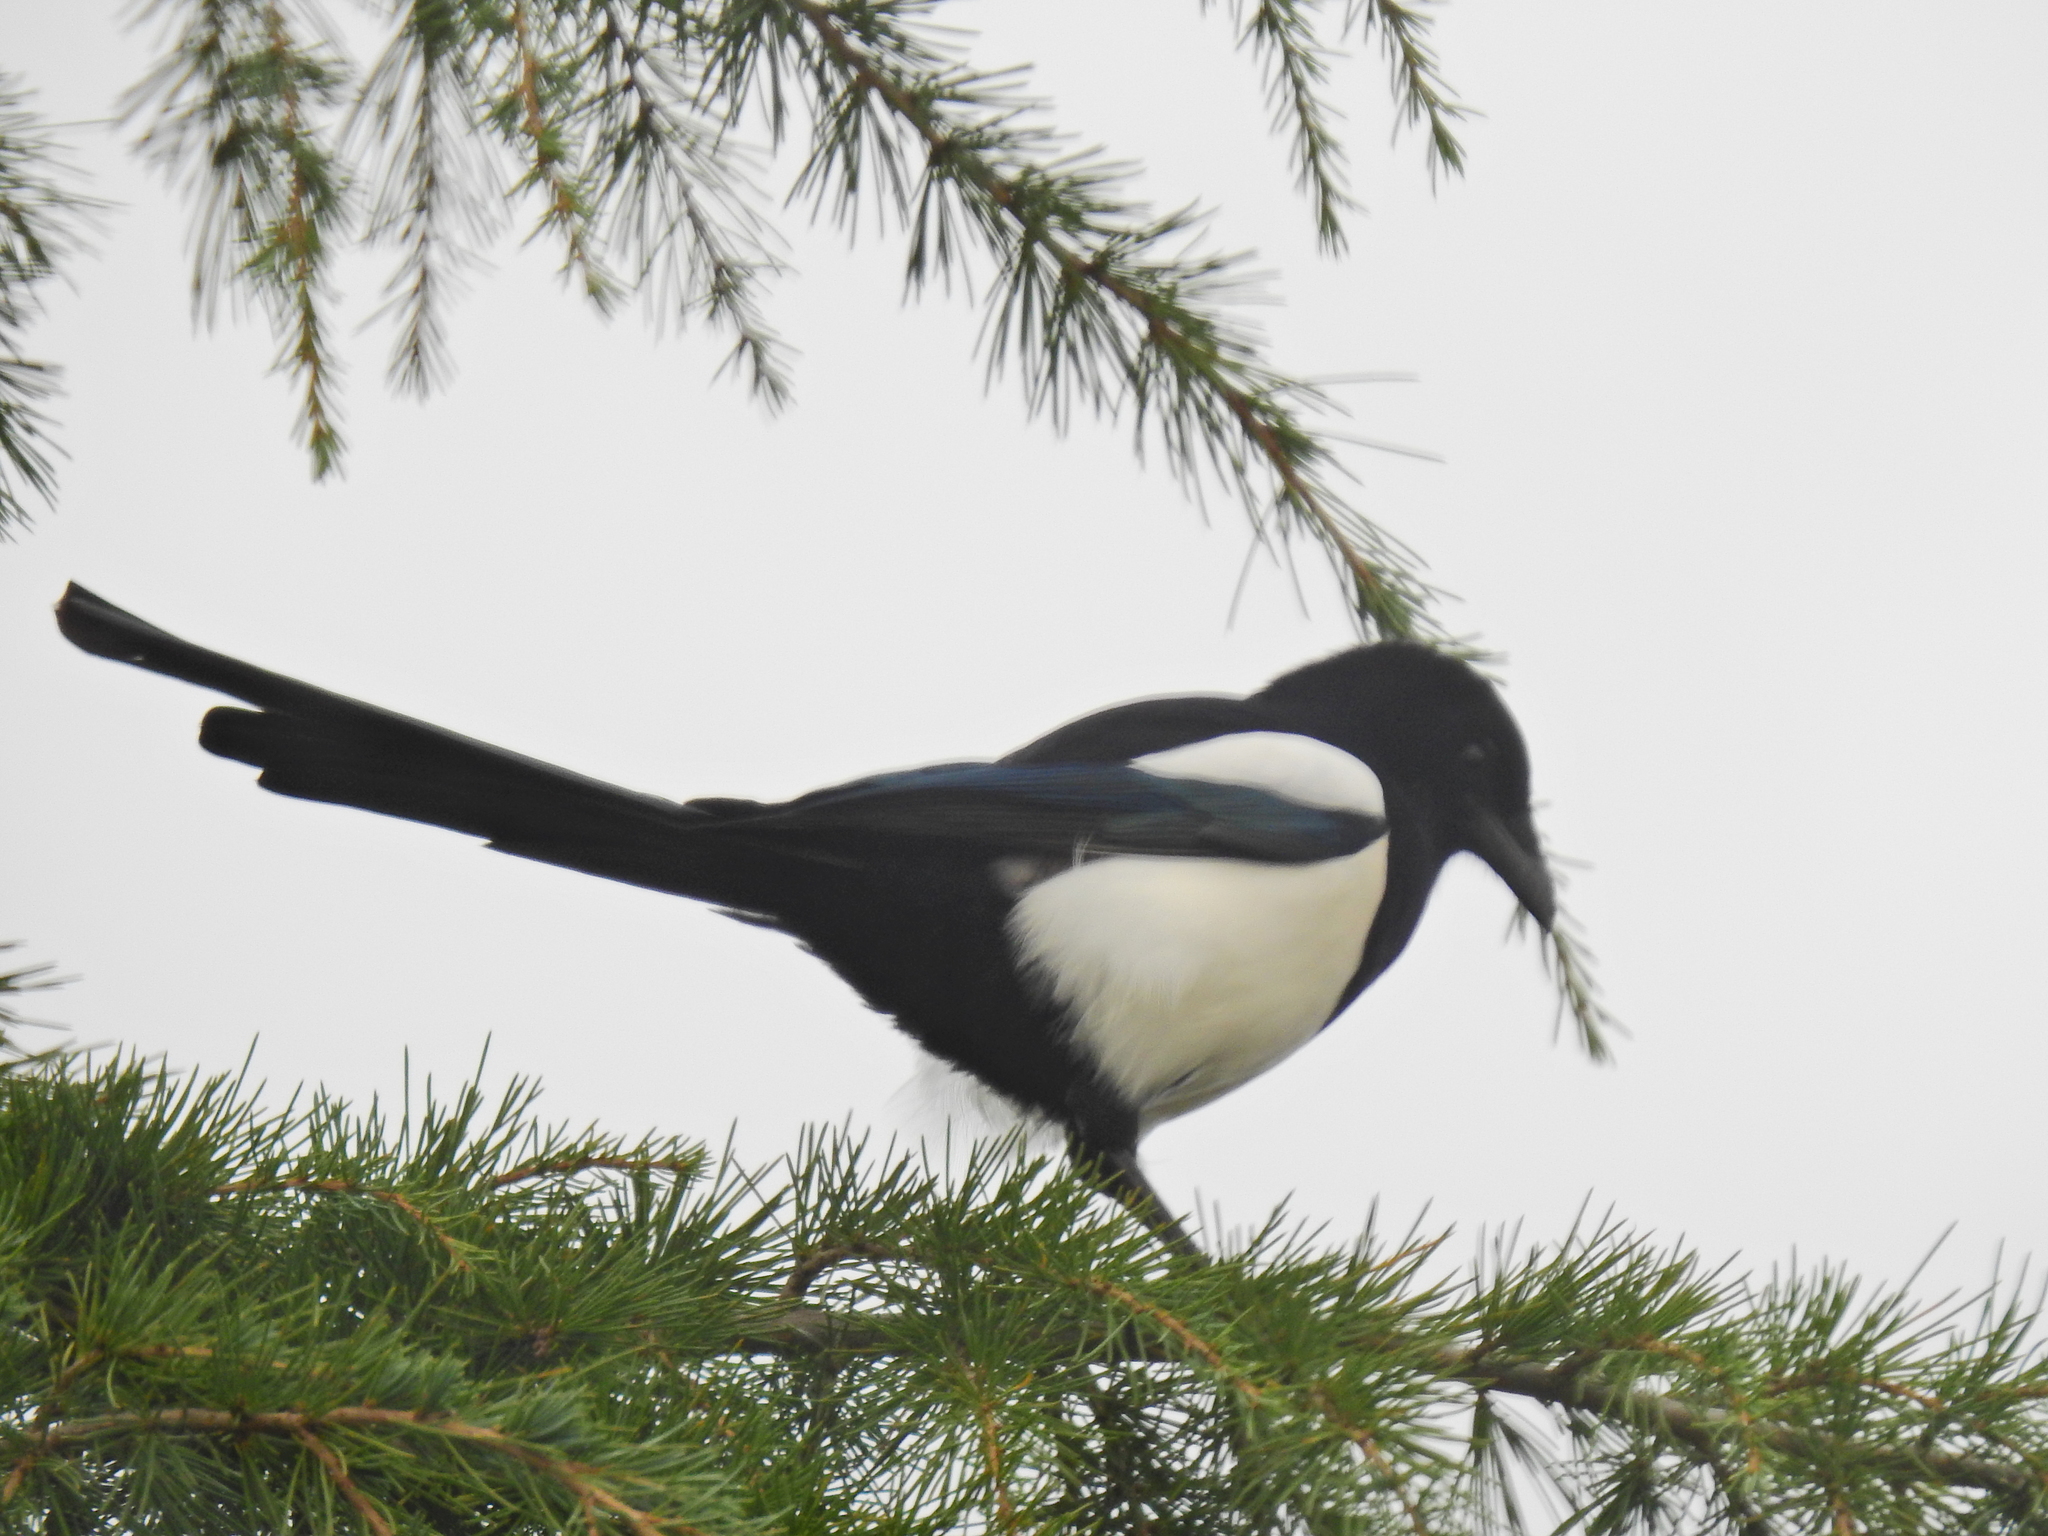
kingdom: Animalia
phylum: Chordata
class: Aves
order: Passeriformes
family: Corvidae
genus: Pica
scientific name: Pica pica
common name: Eurasian magpie
